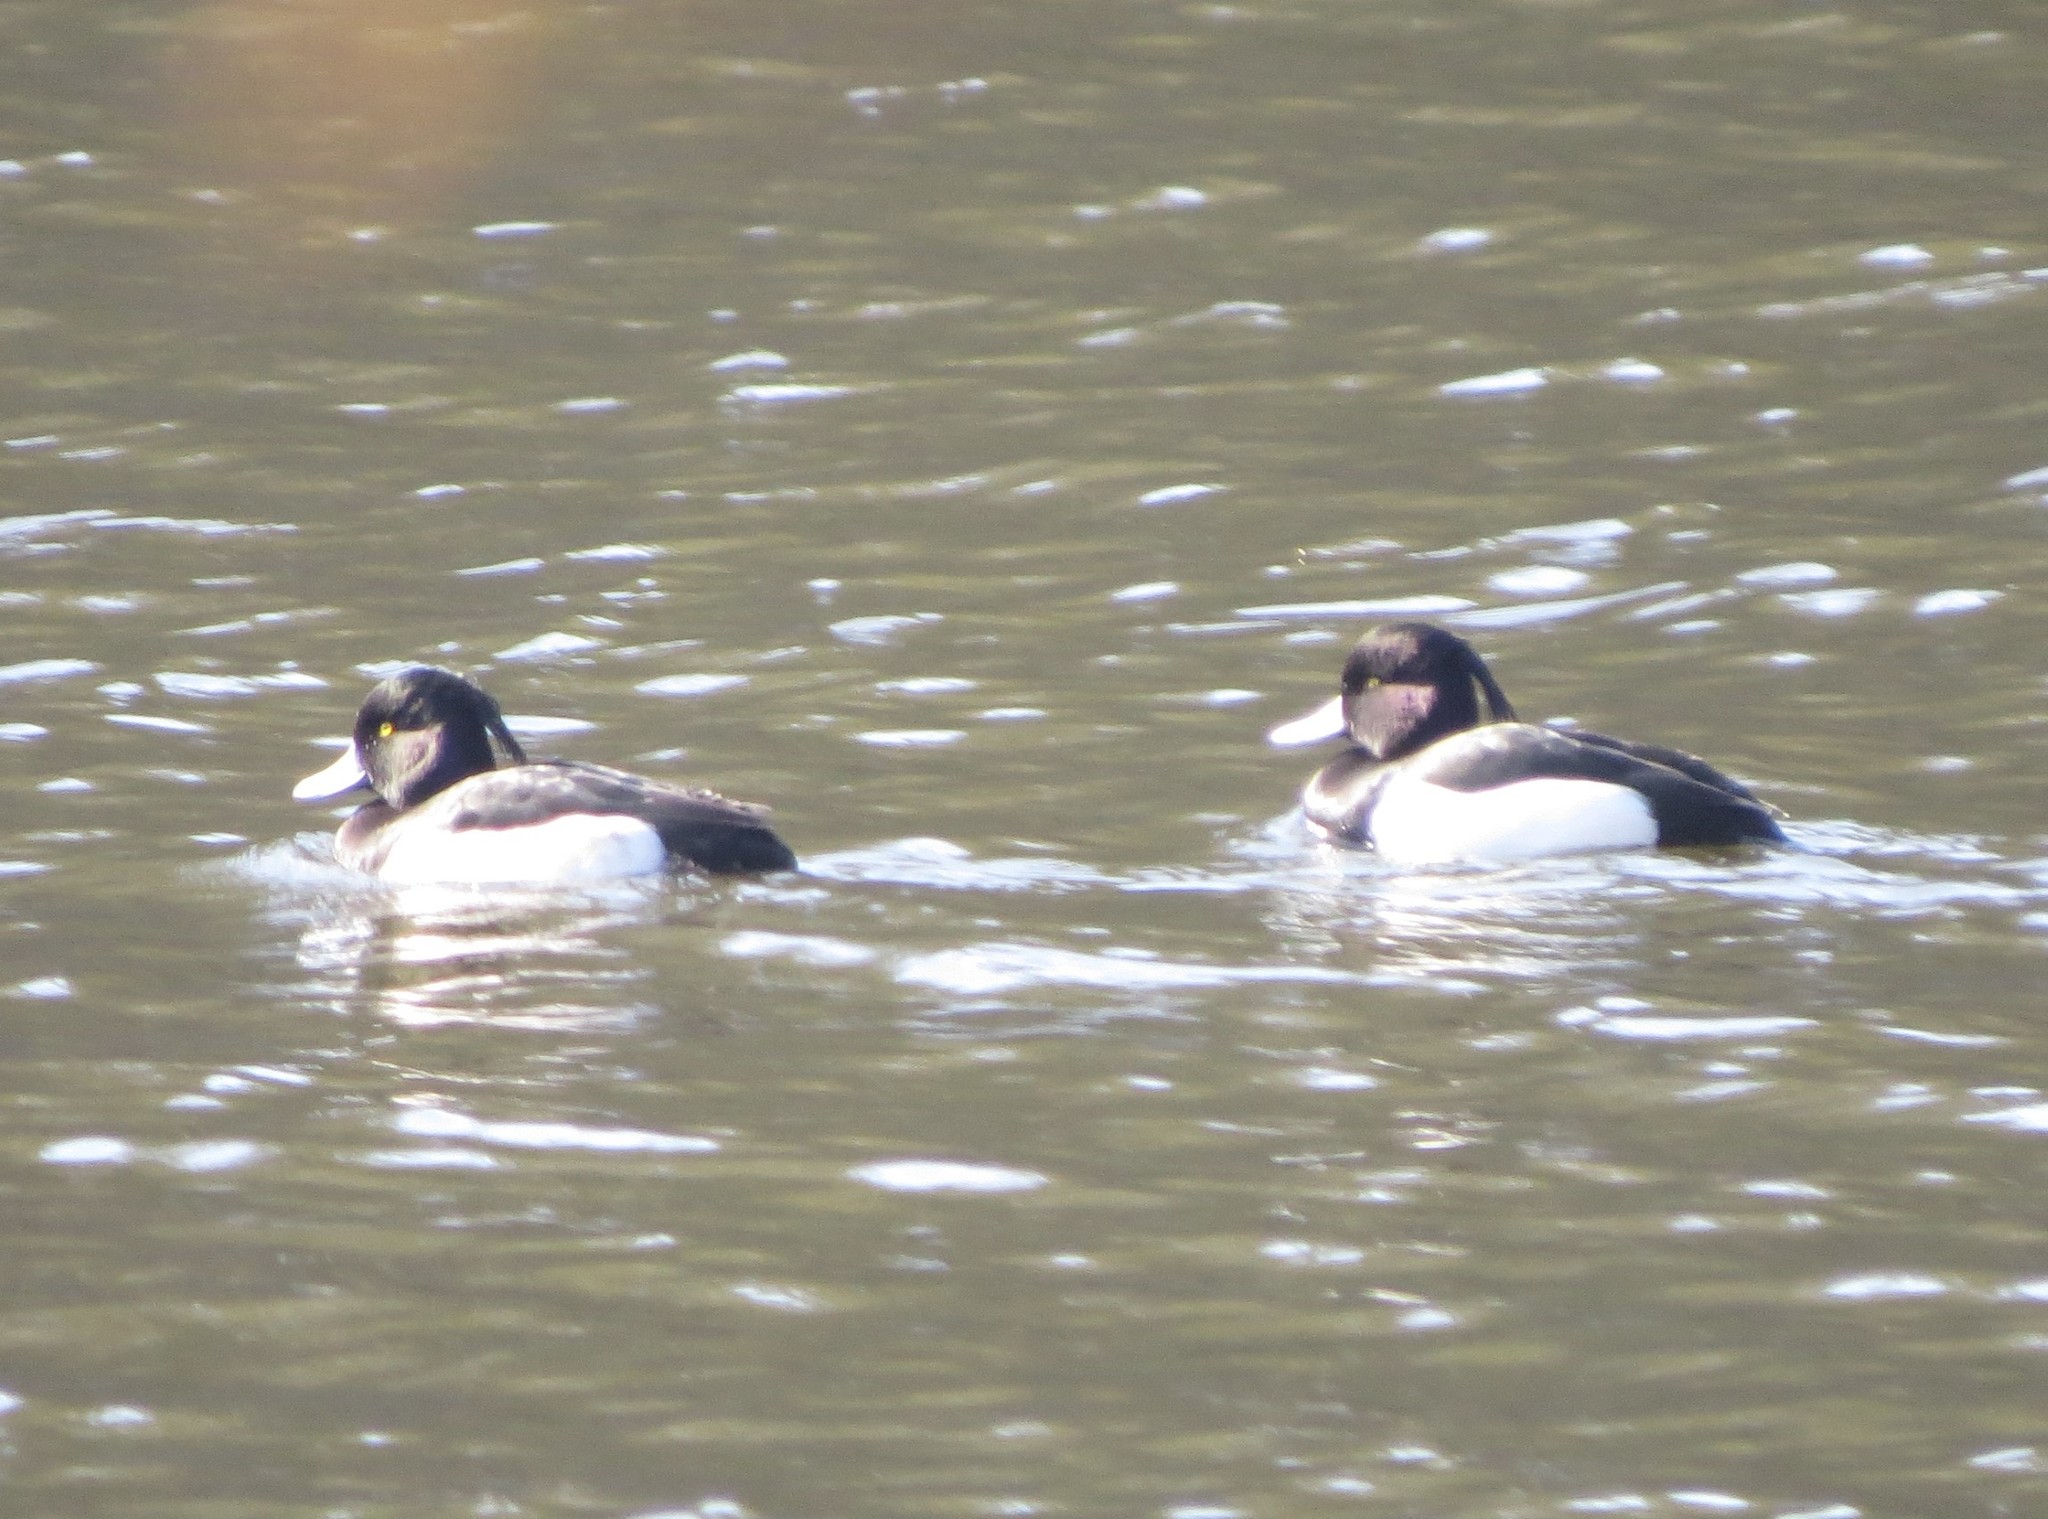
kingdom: Animalia
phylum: Chordata
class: Aves
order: Anseriformes
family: Anatidae
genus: Aythya
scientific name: Aythya fuligula
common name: Tufted duck
